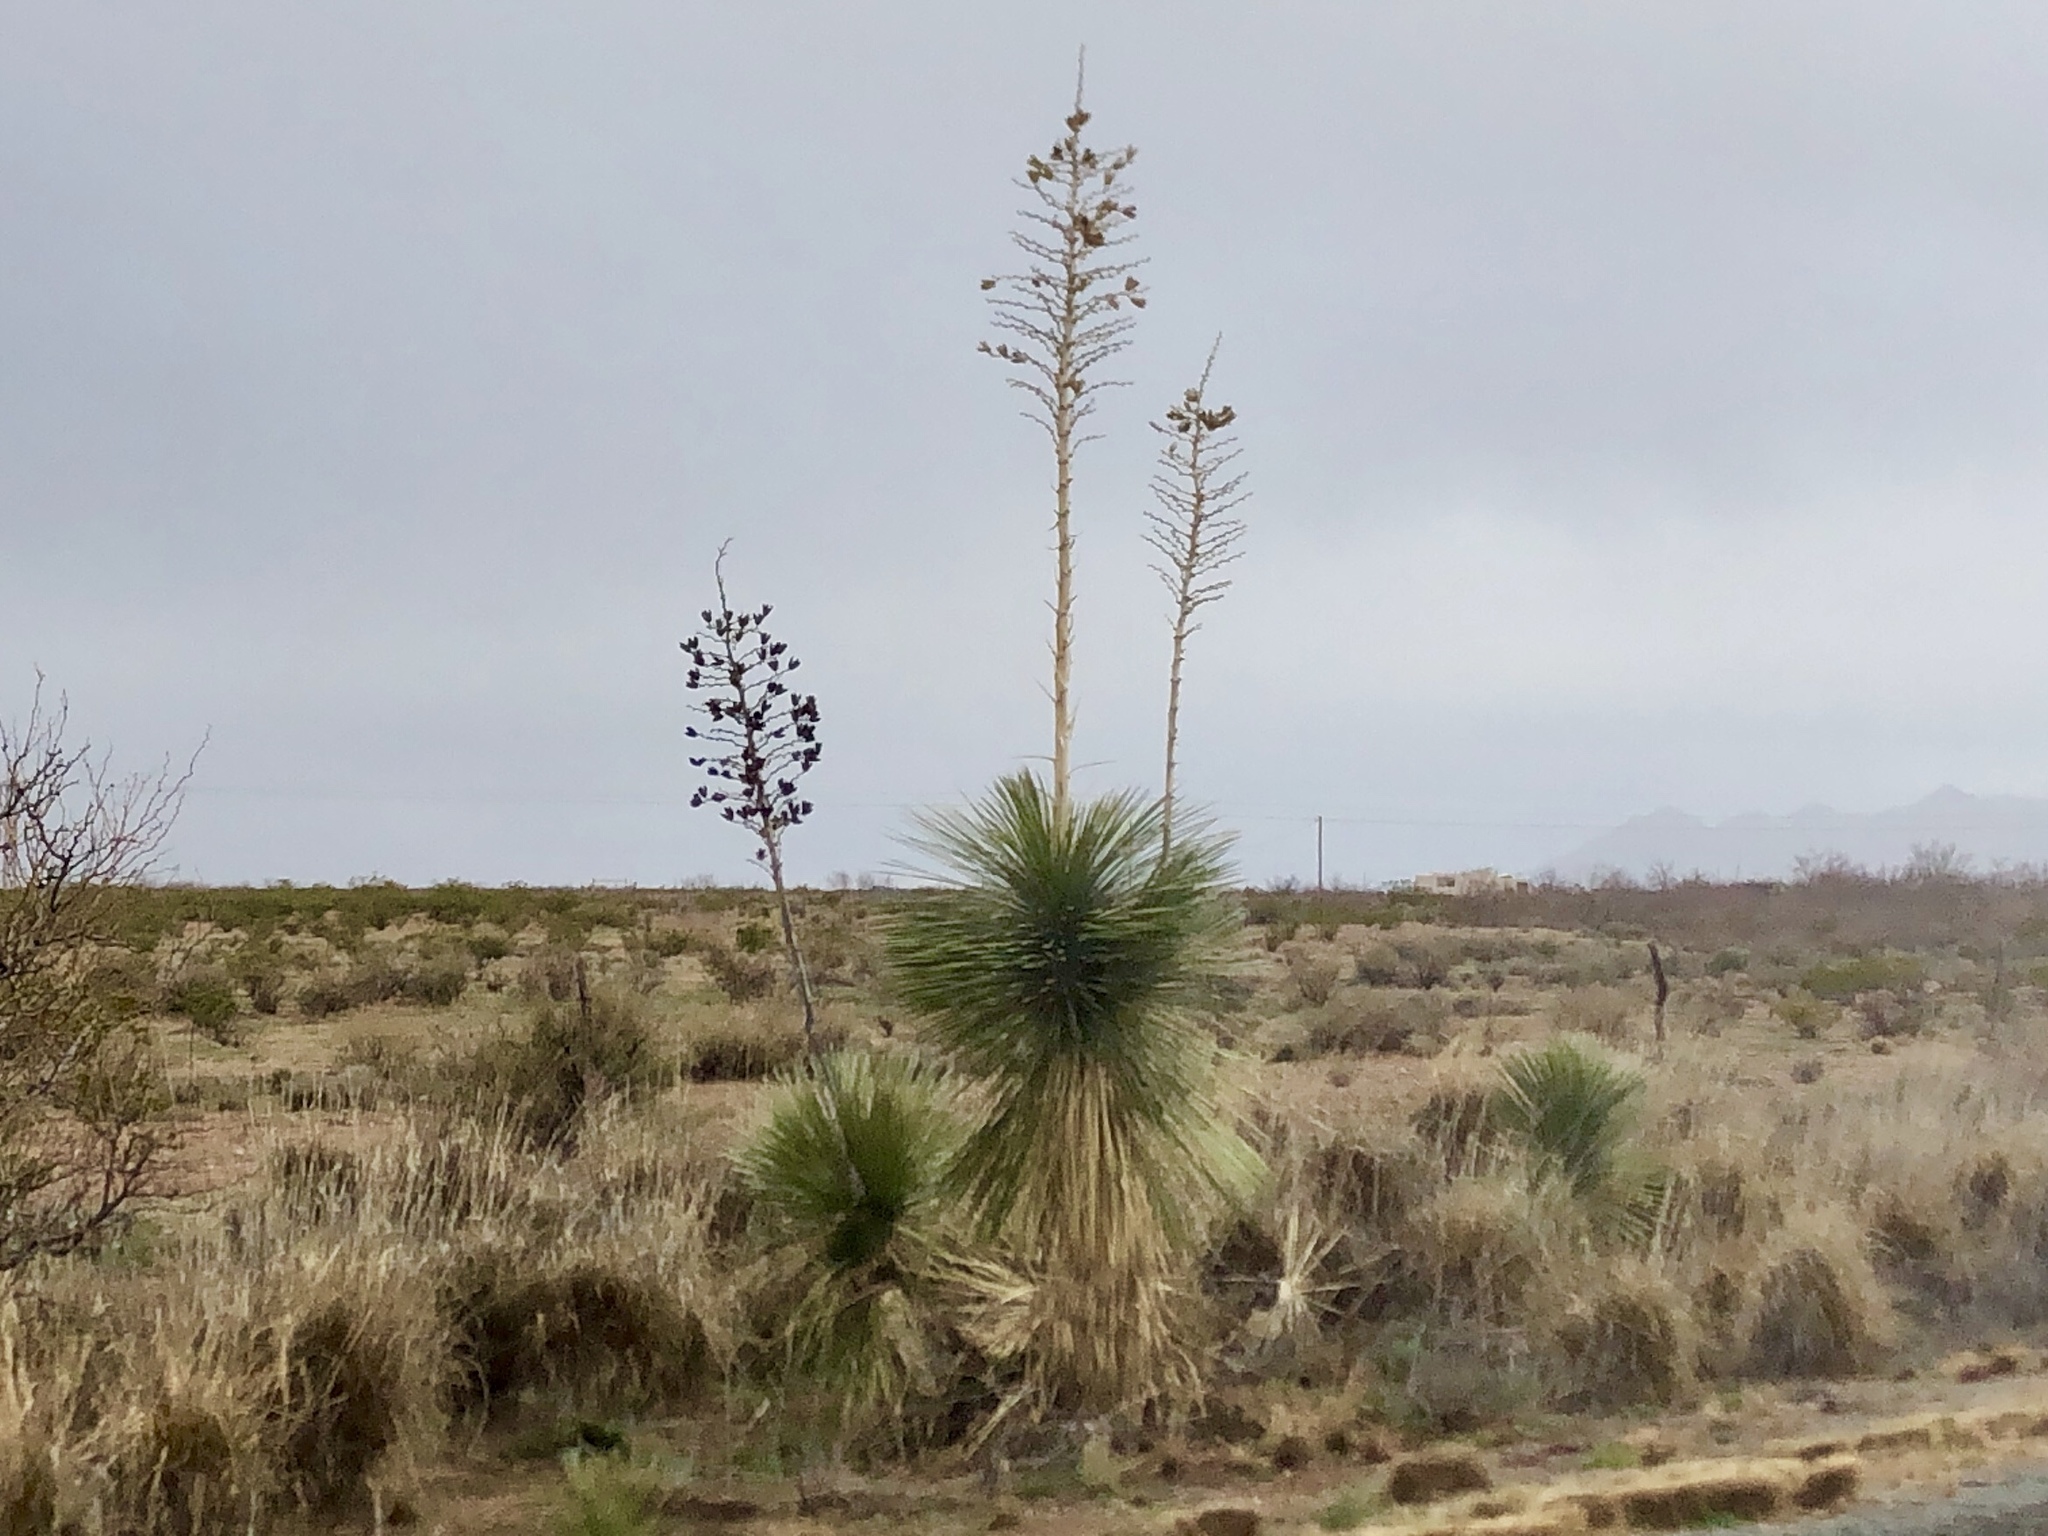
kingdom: Plantae
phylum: Tracheophyta
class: Liliopsida
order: Asparagales
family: Asparagaceae
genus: Yucca
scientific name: Yucca elata
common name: Palmella
